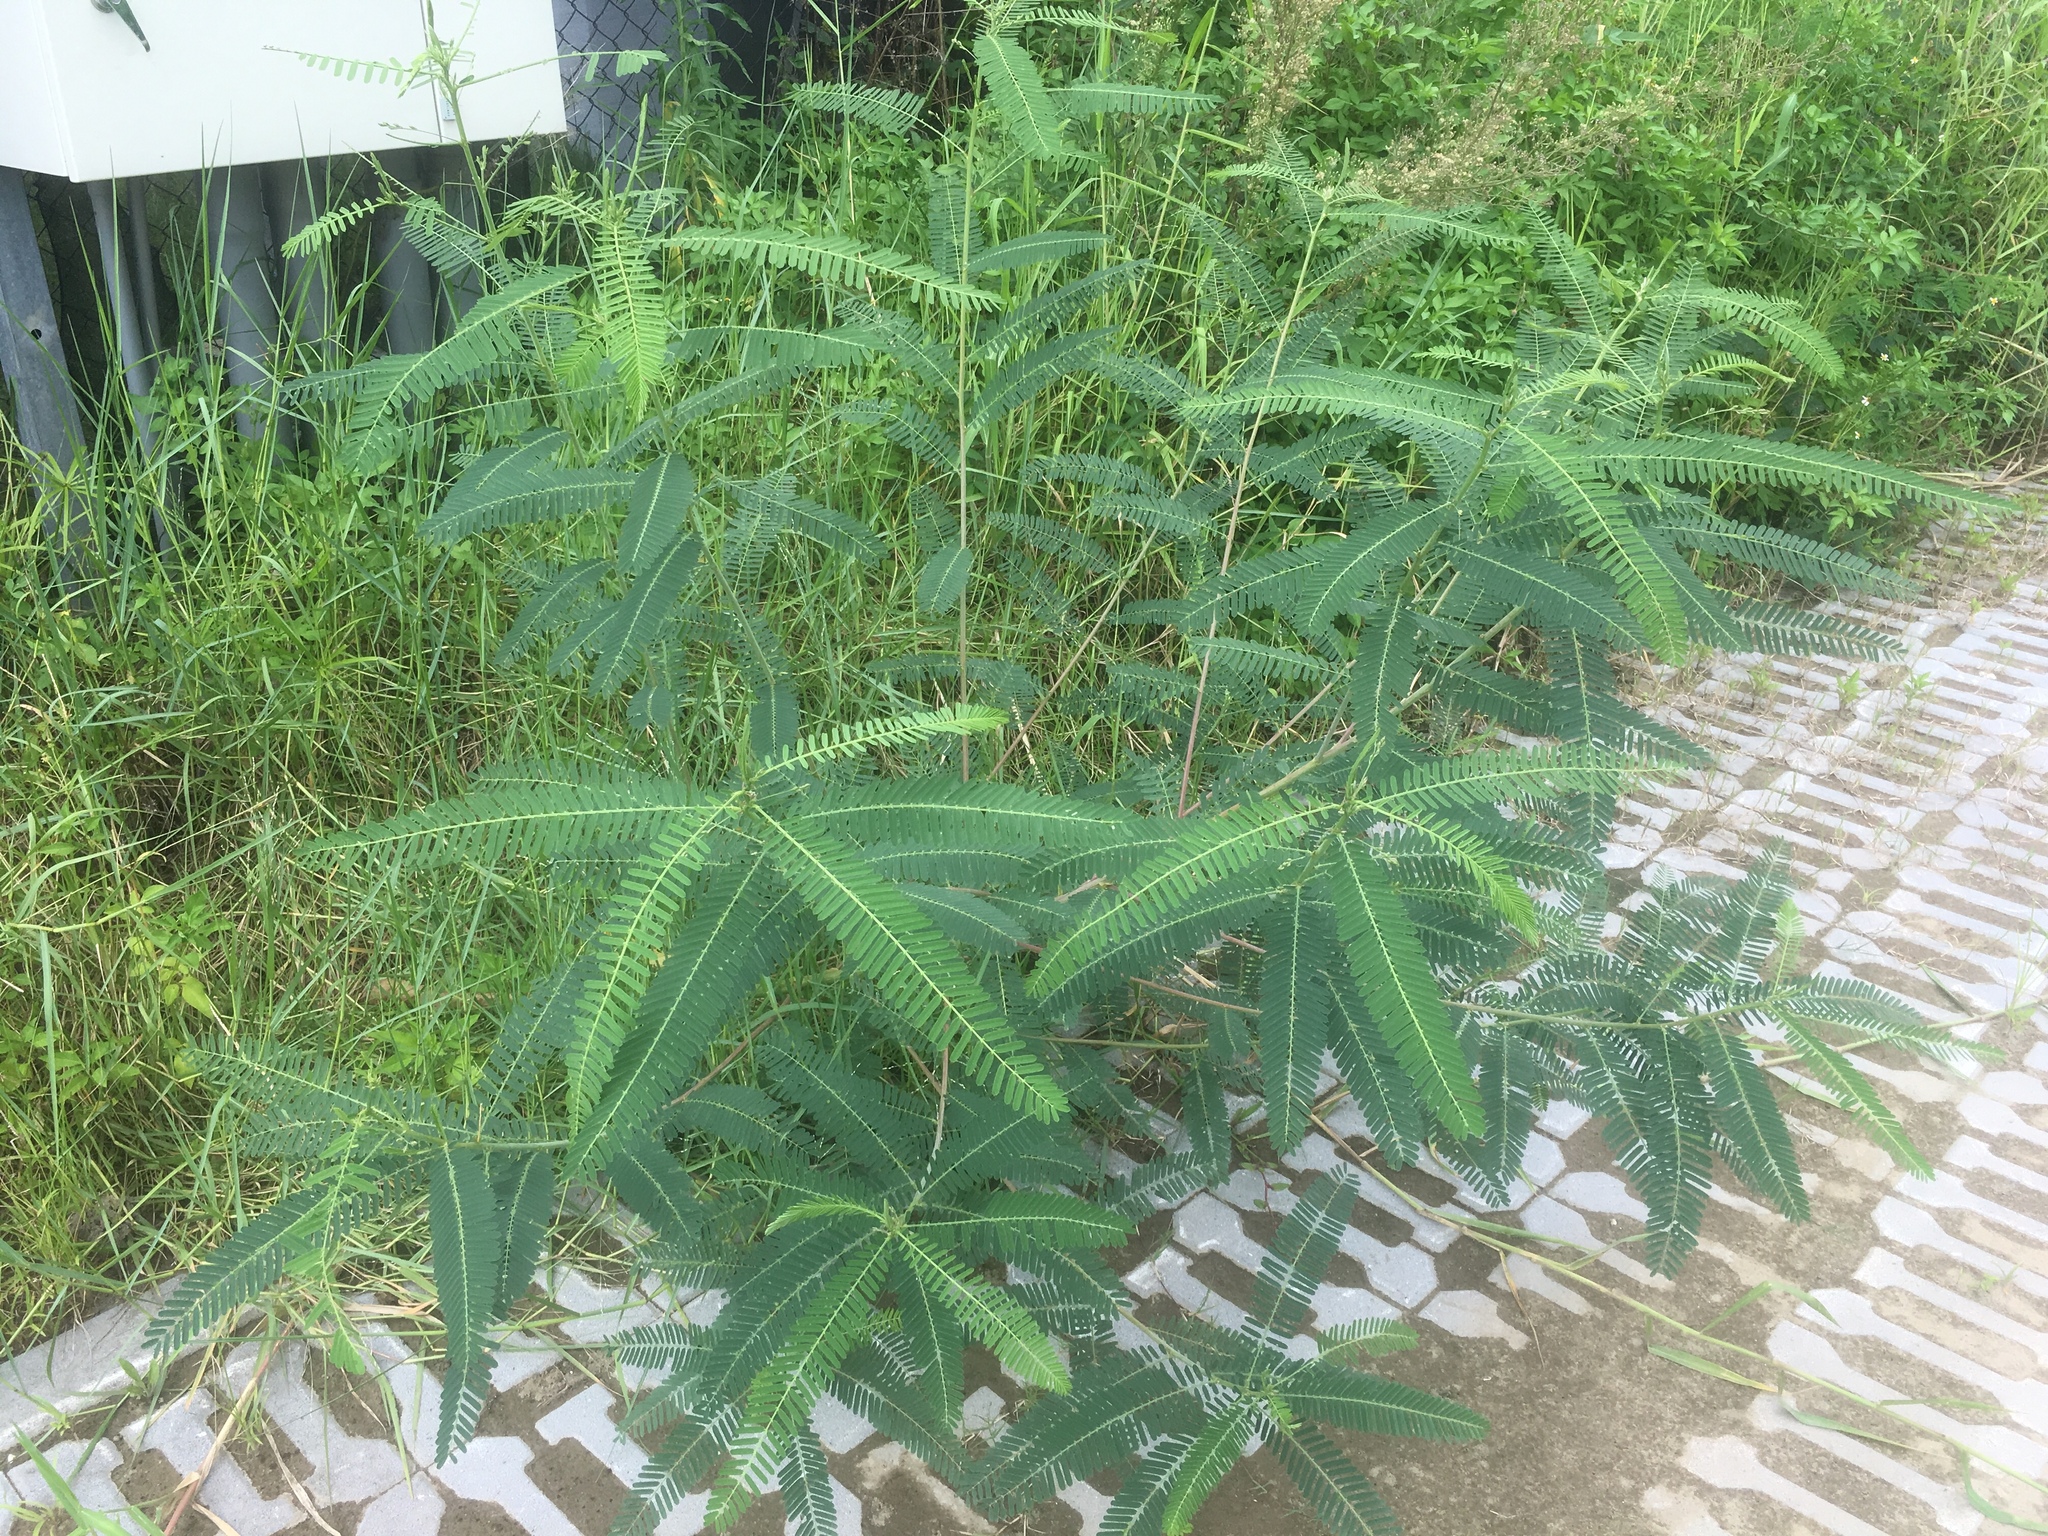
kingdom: Plantae
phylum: Tracheophyta
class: Magnoliopsida
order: Fabales
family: Fabaceae
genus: Sesbania
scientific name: Sesbania cannabina
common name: Canicha
